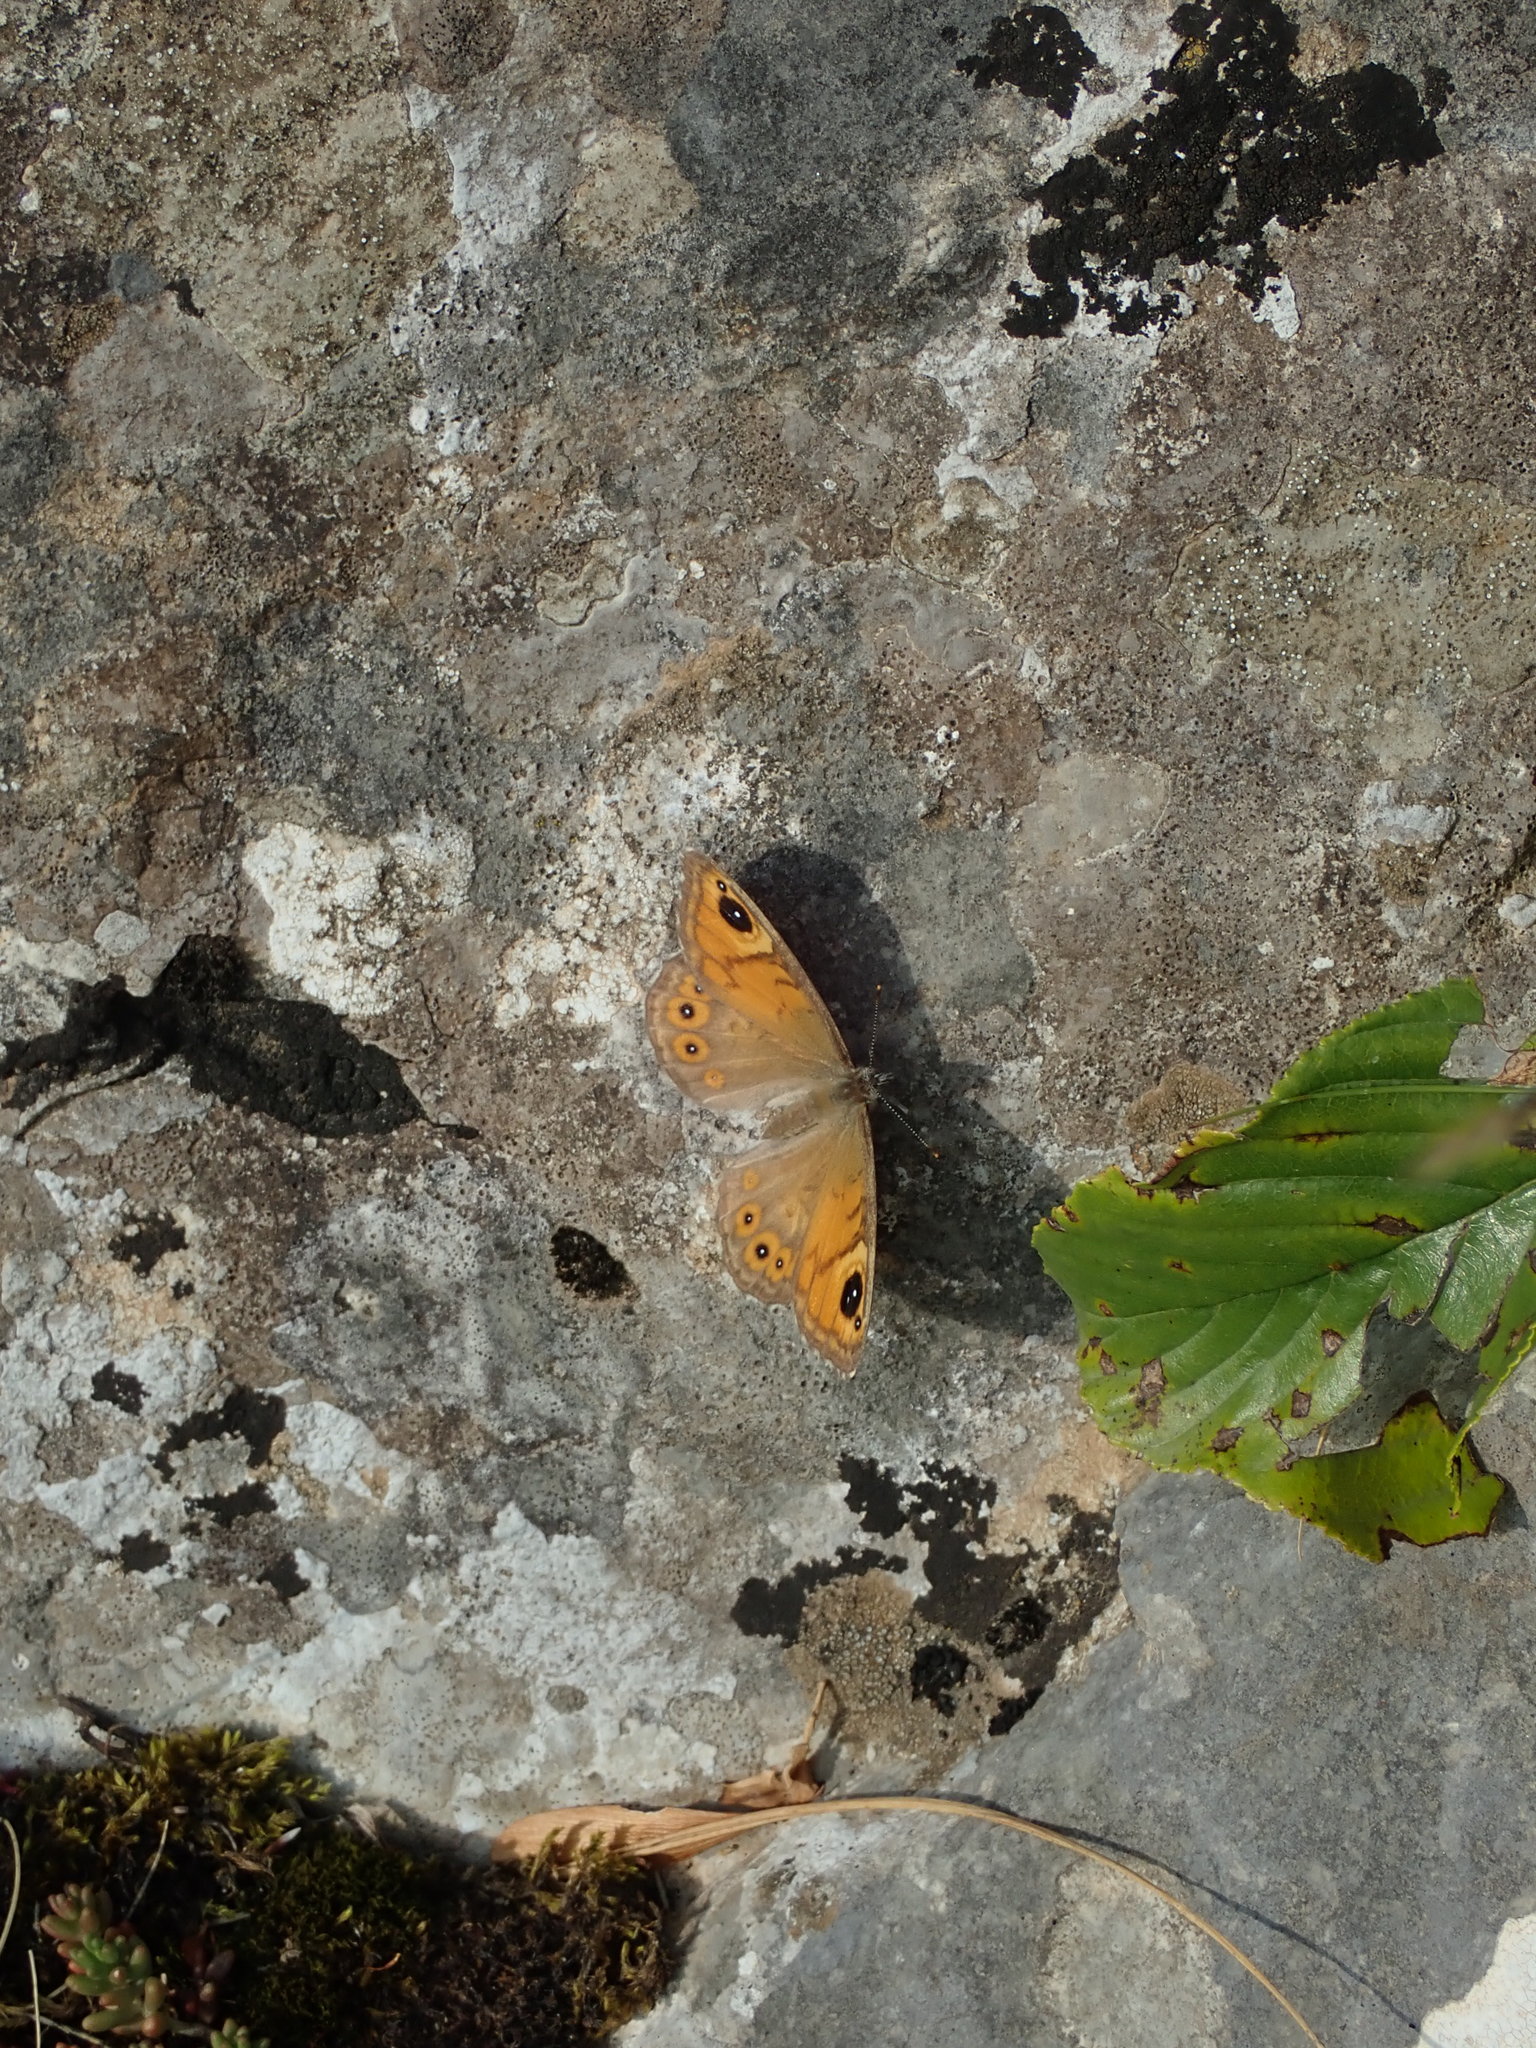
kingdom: Animalia
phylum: Arthropoda
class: Insecta
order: Lepidoptera
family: Nymphalidae
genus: Pararge
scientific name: Pararge Lasiommata maera
